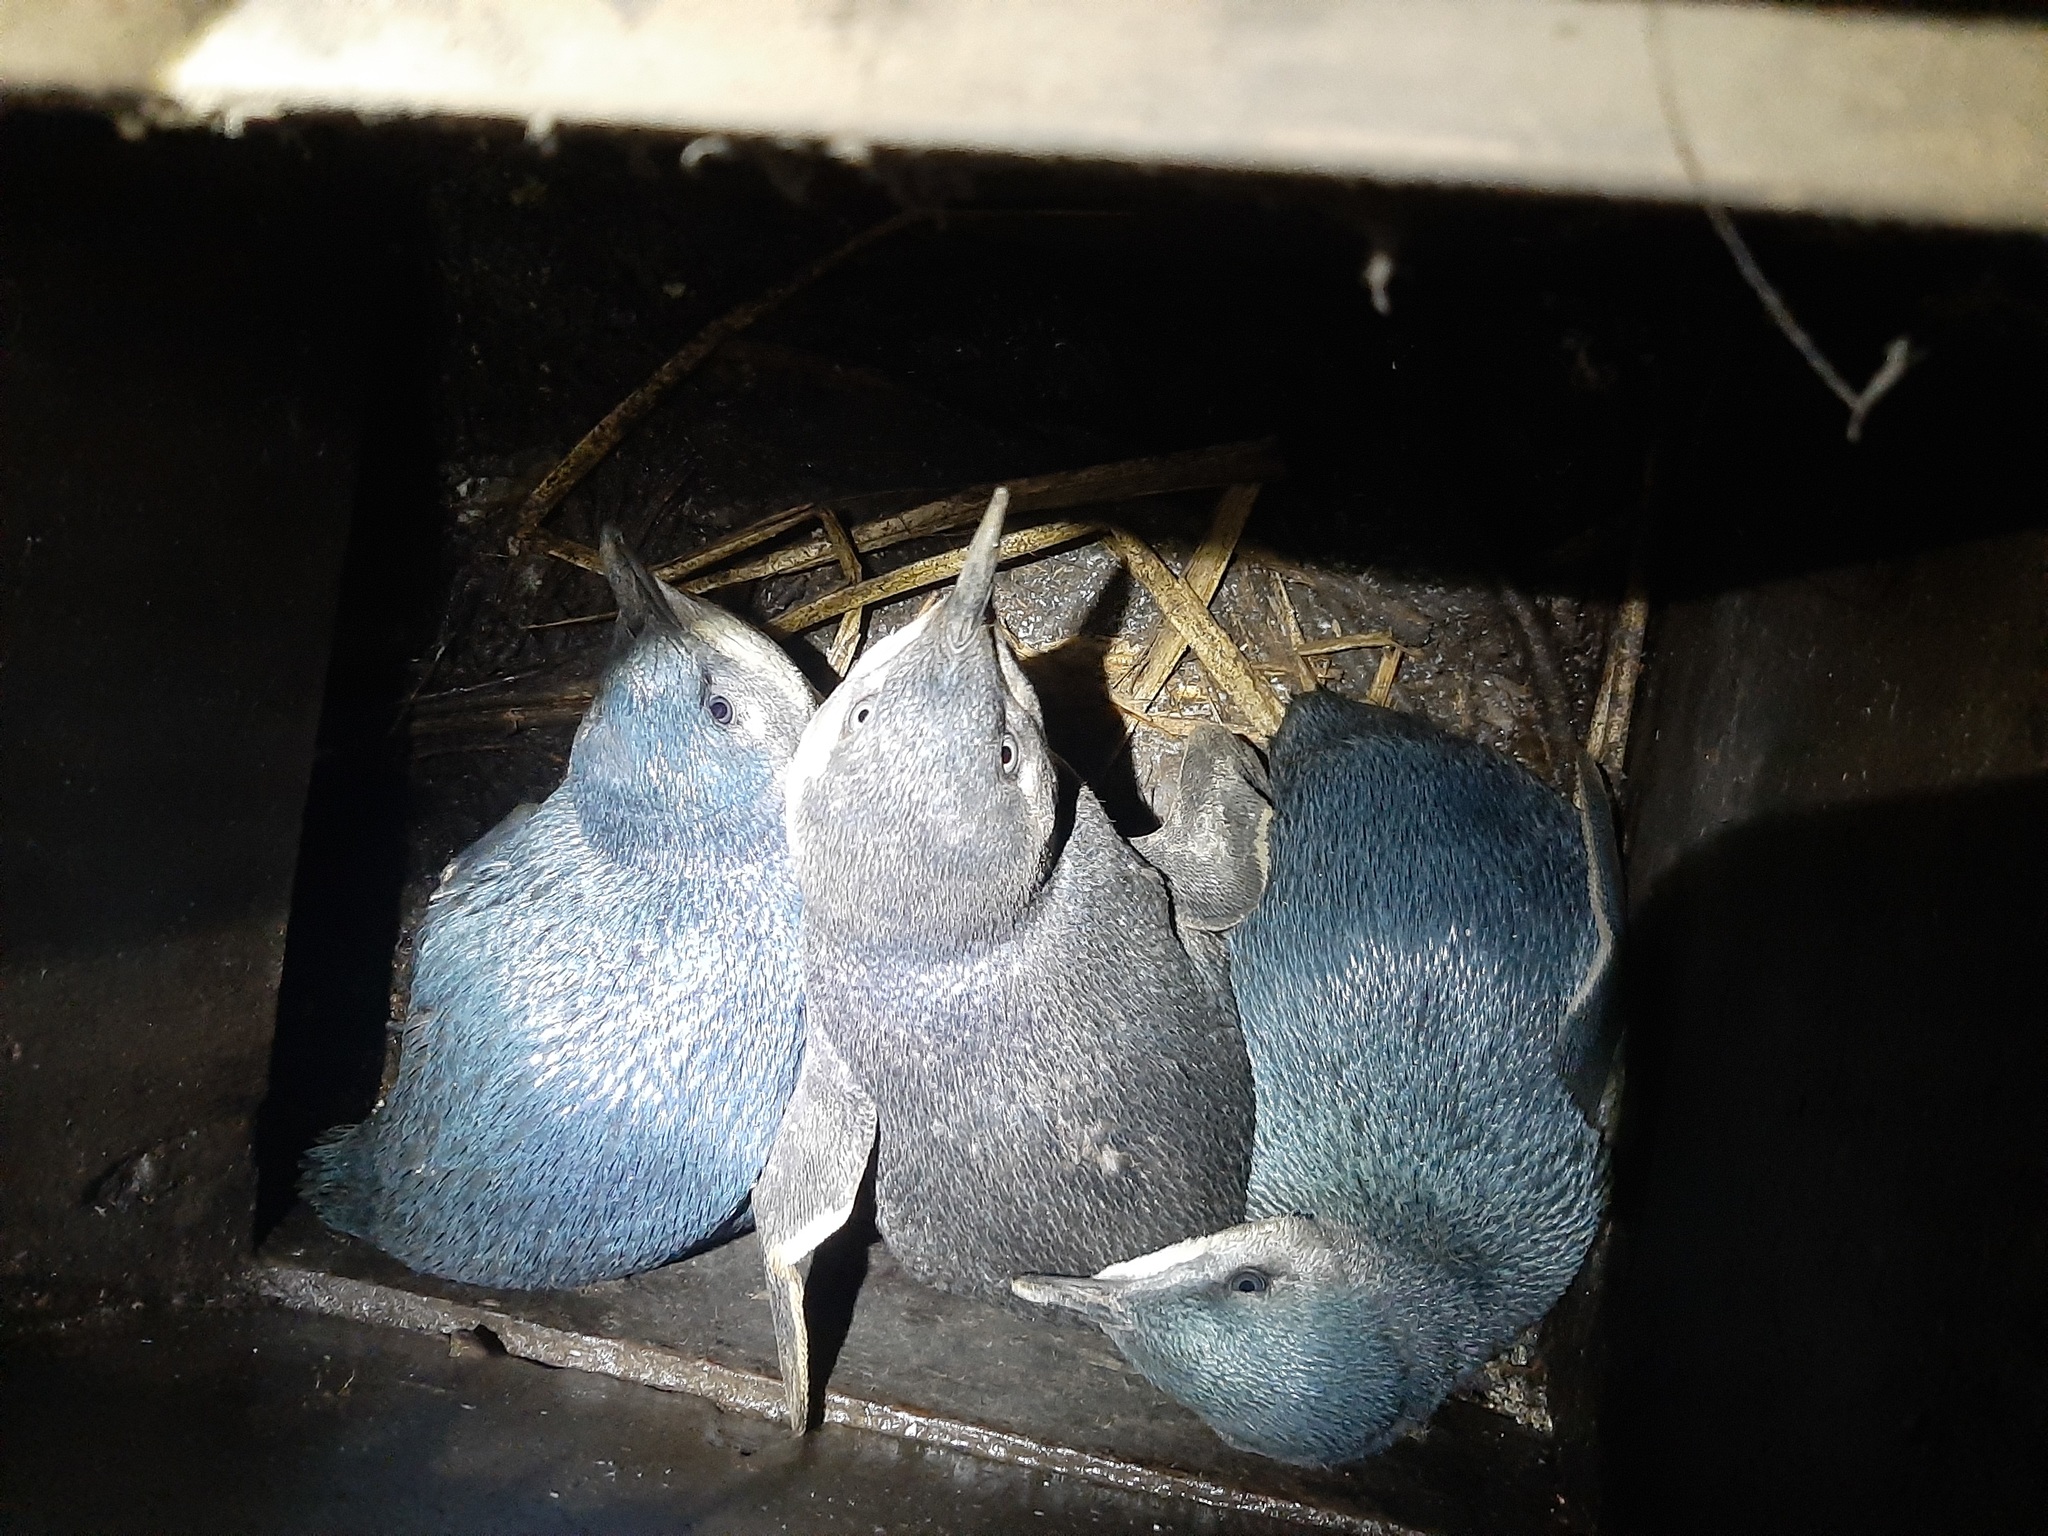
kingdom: Animalia
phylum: Chordata
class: Aves
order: Sphenisciformes
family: Spheniscidae
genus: Eudyptula
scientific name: Eudyptula minor
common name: Little penguin
